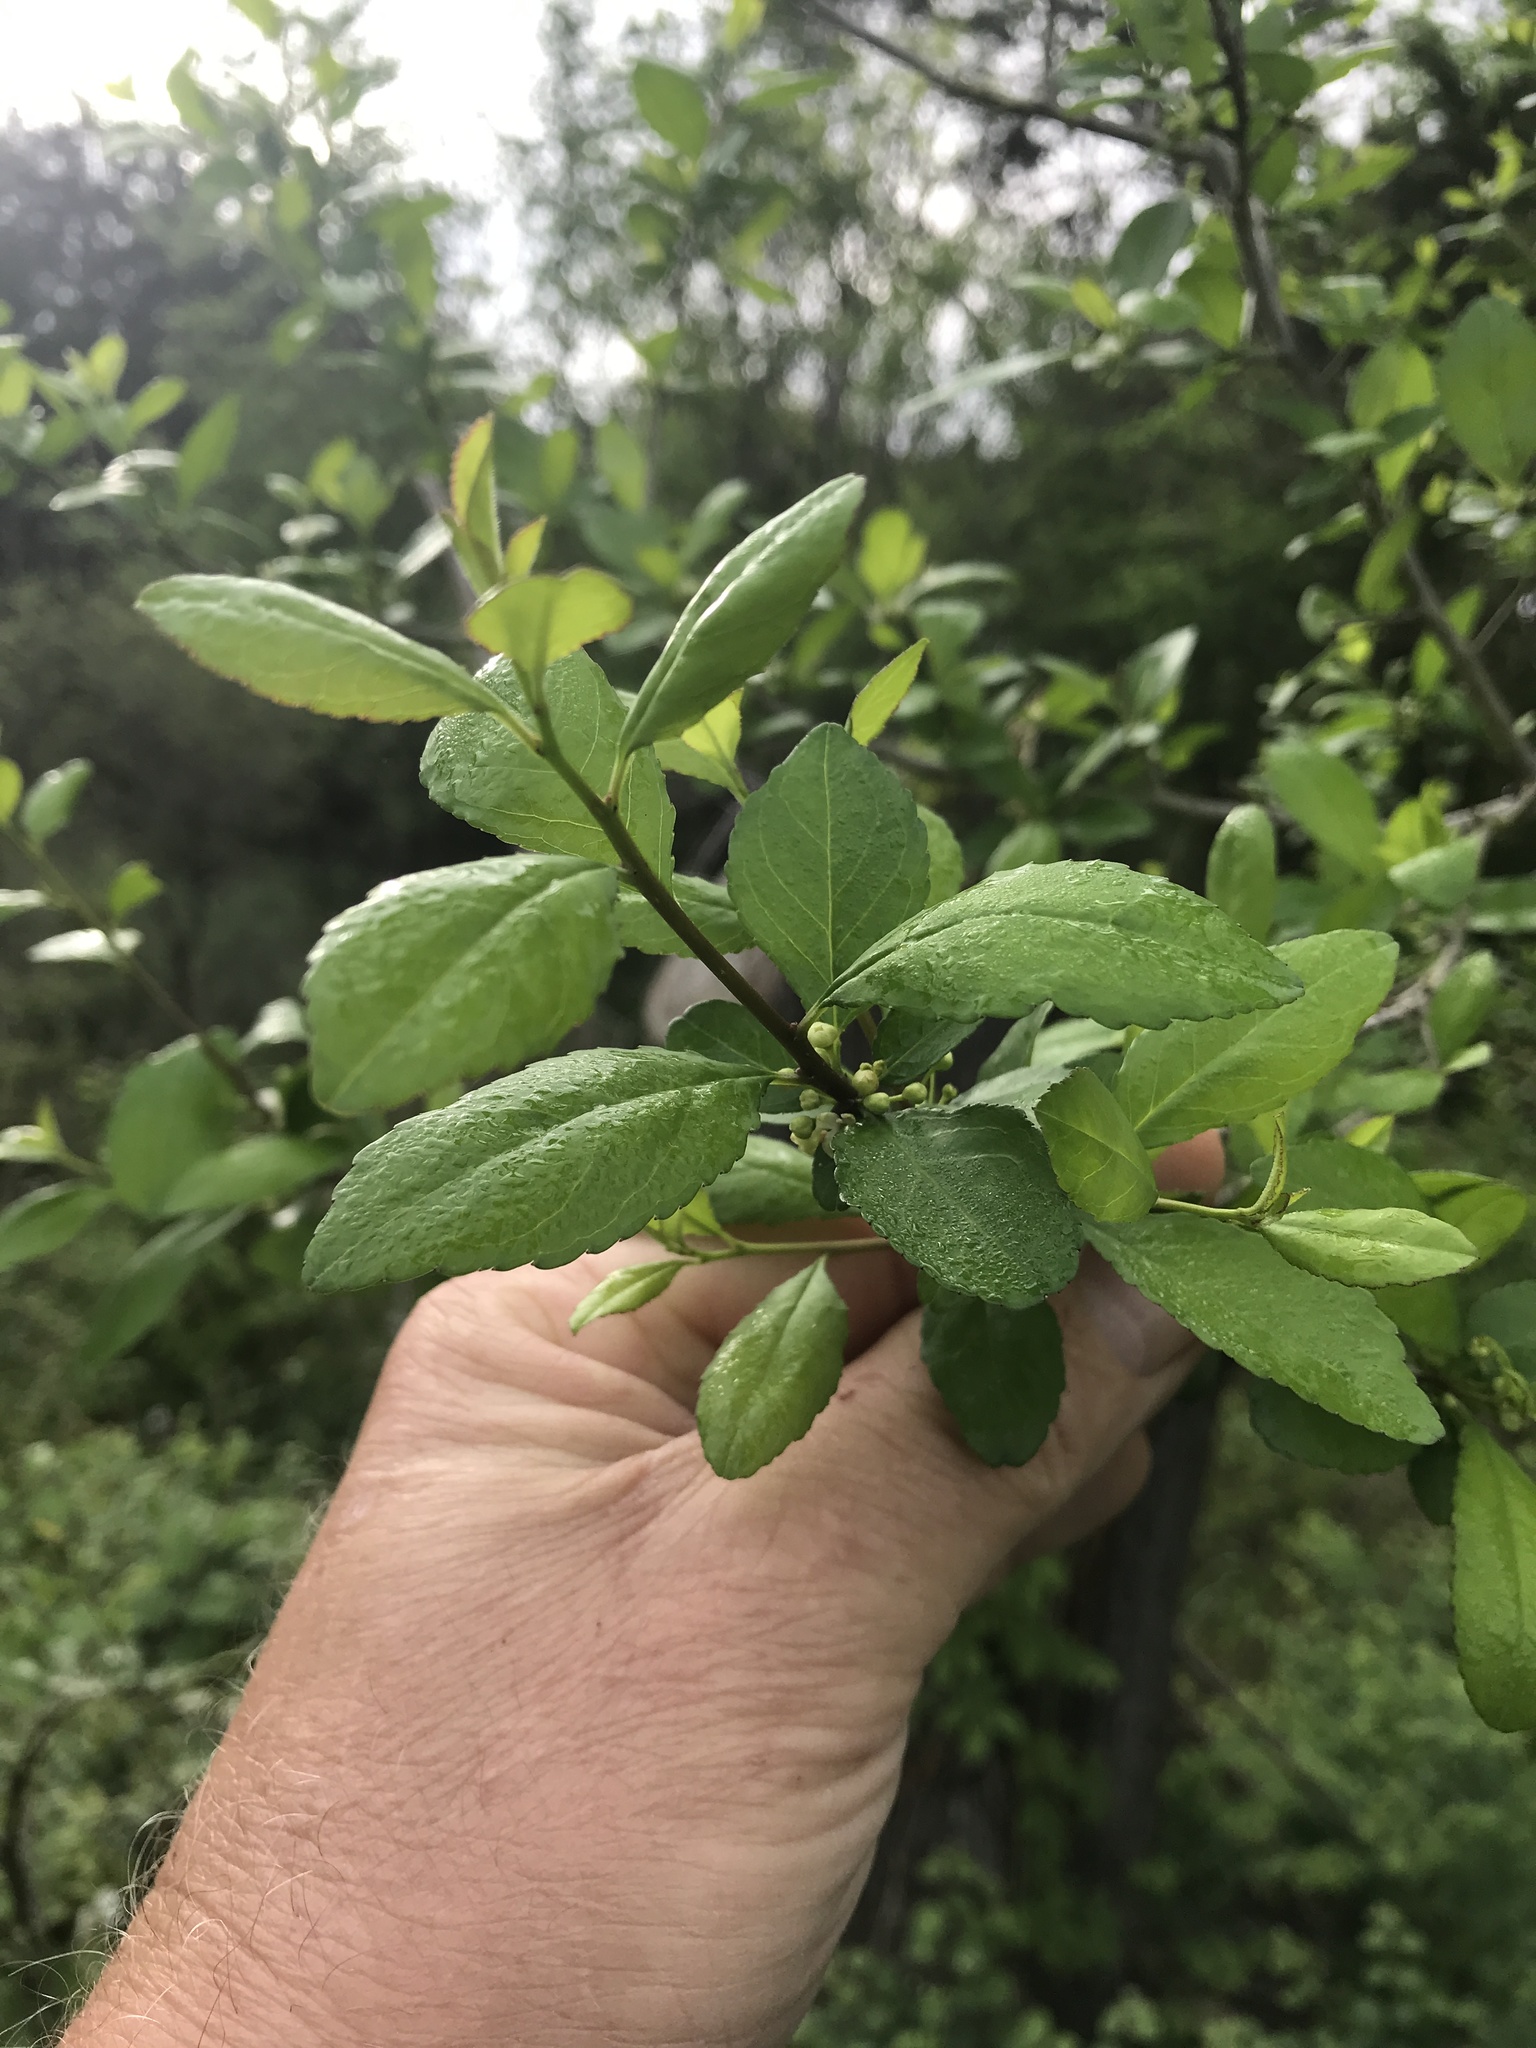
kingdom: Plantae
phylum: Tracheophyta
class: Magnoliopsida
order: Aquifoliales
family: Aquifoliaceae
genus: Ilex
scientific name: Ilex decidua
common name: Possum-haw
